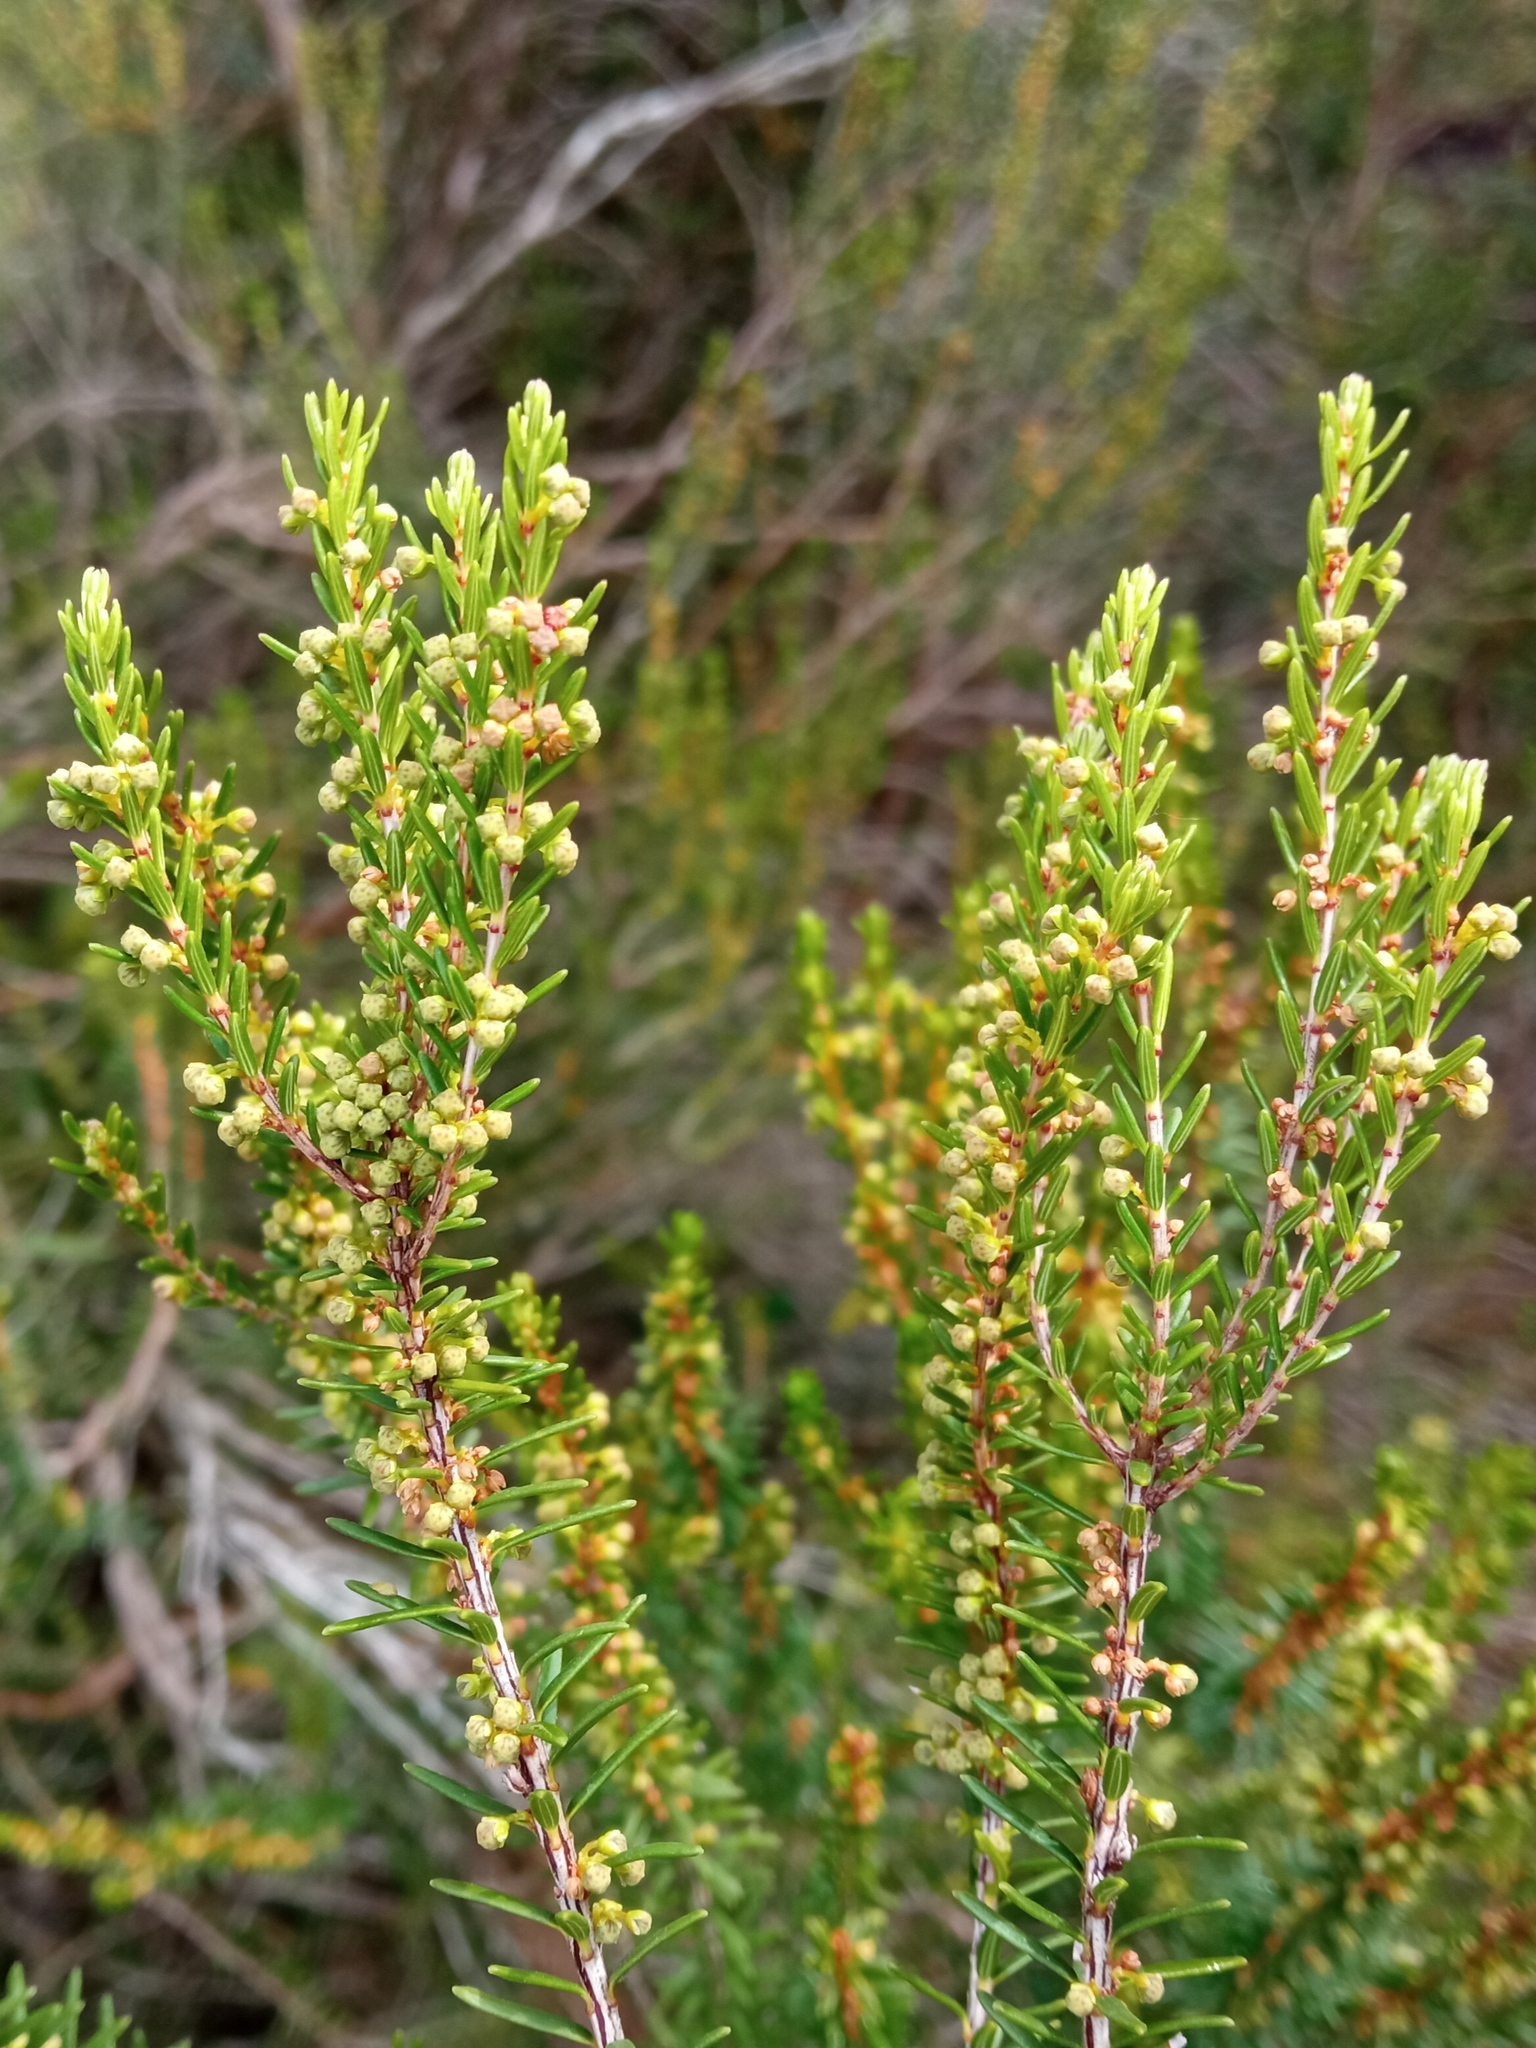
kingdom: Plantae
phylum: Tracheophyta
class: Magnoliopsida
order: Ericales
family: Ericaceae
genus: Erica
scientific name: Erica scoparia
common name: Green heather
